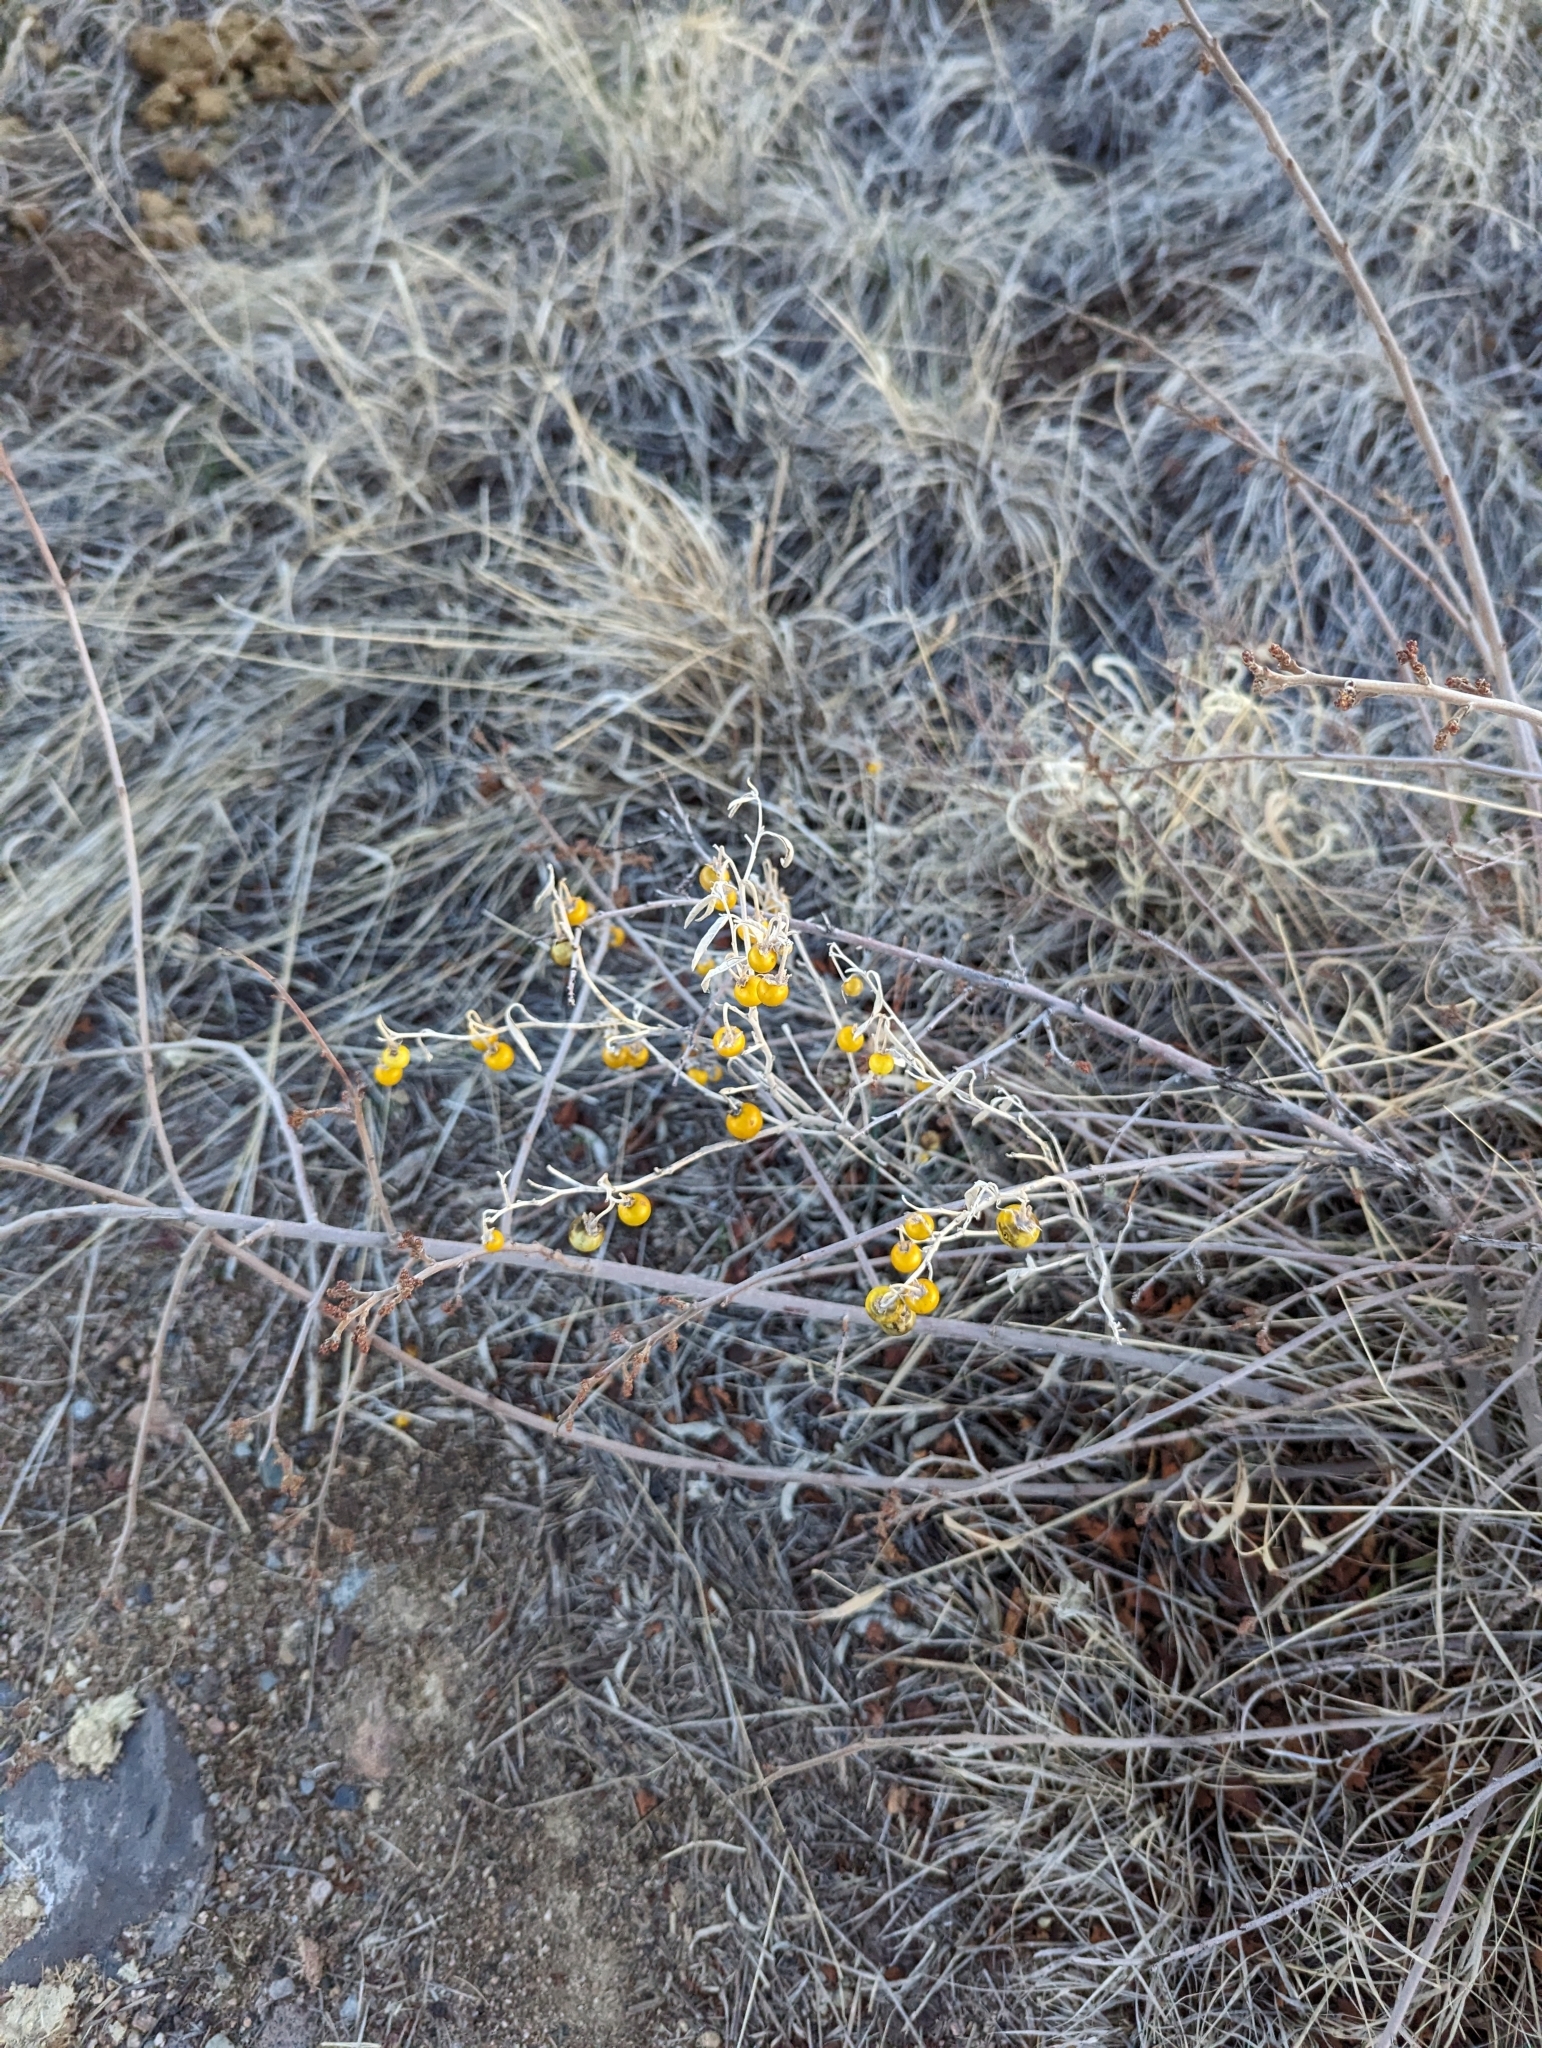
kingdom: Plantae
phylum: Tracheophyta
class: Magnoliopsida
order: Solanales
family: Solanaceae
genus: Solanum
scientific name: Solanum elaeagnifolium
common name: Silverleaf nightshade
